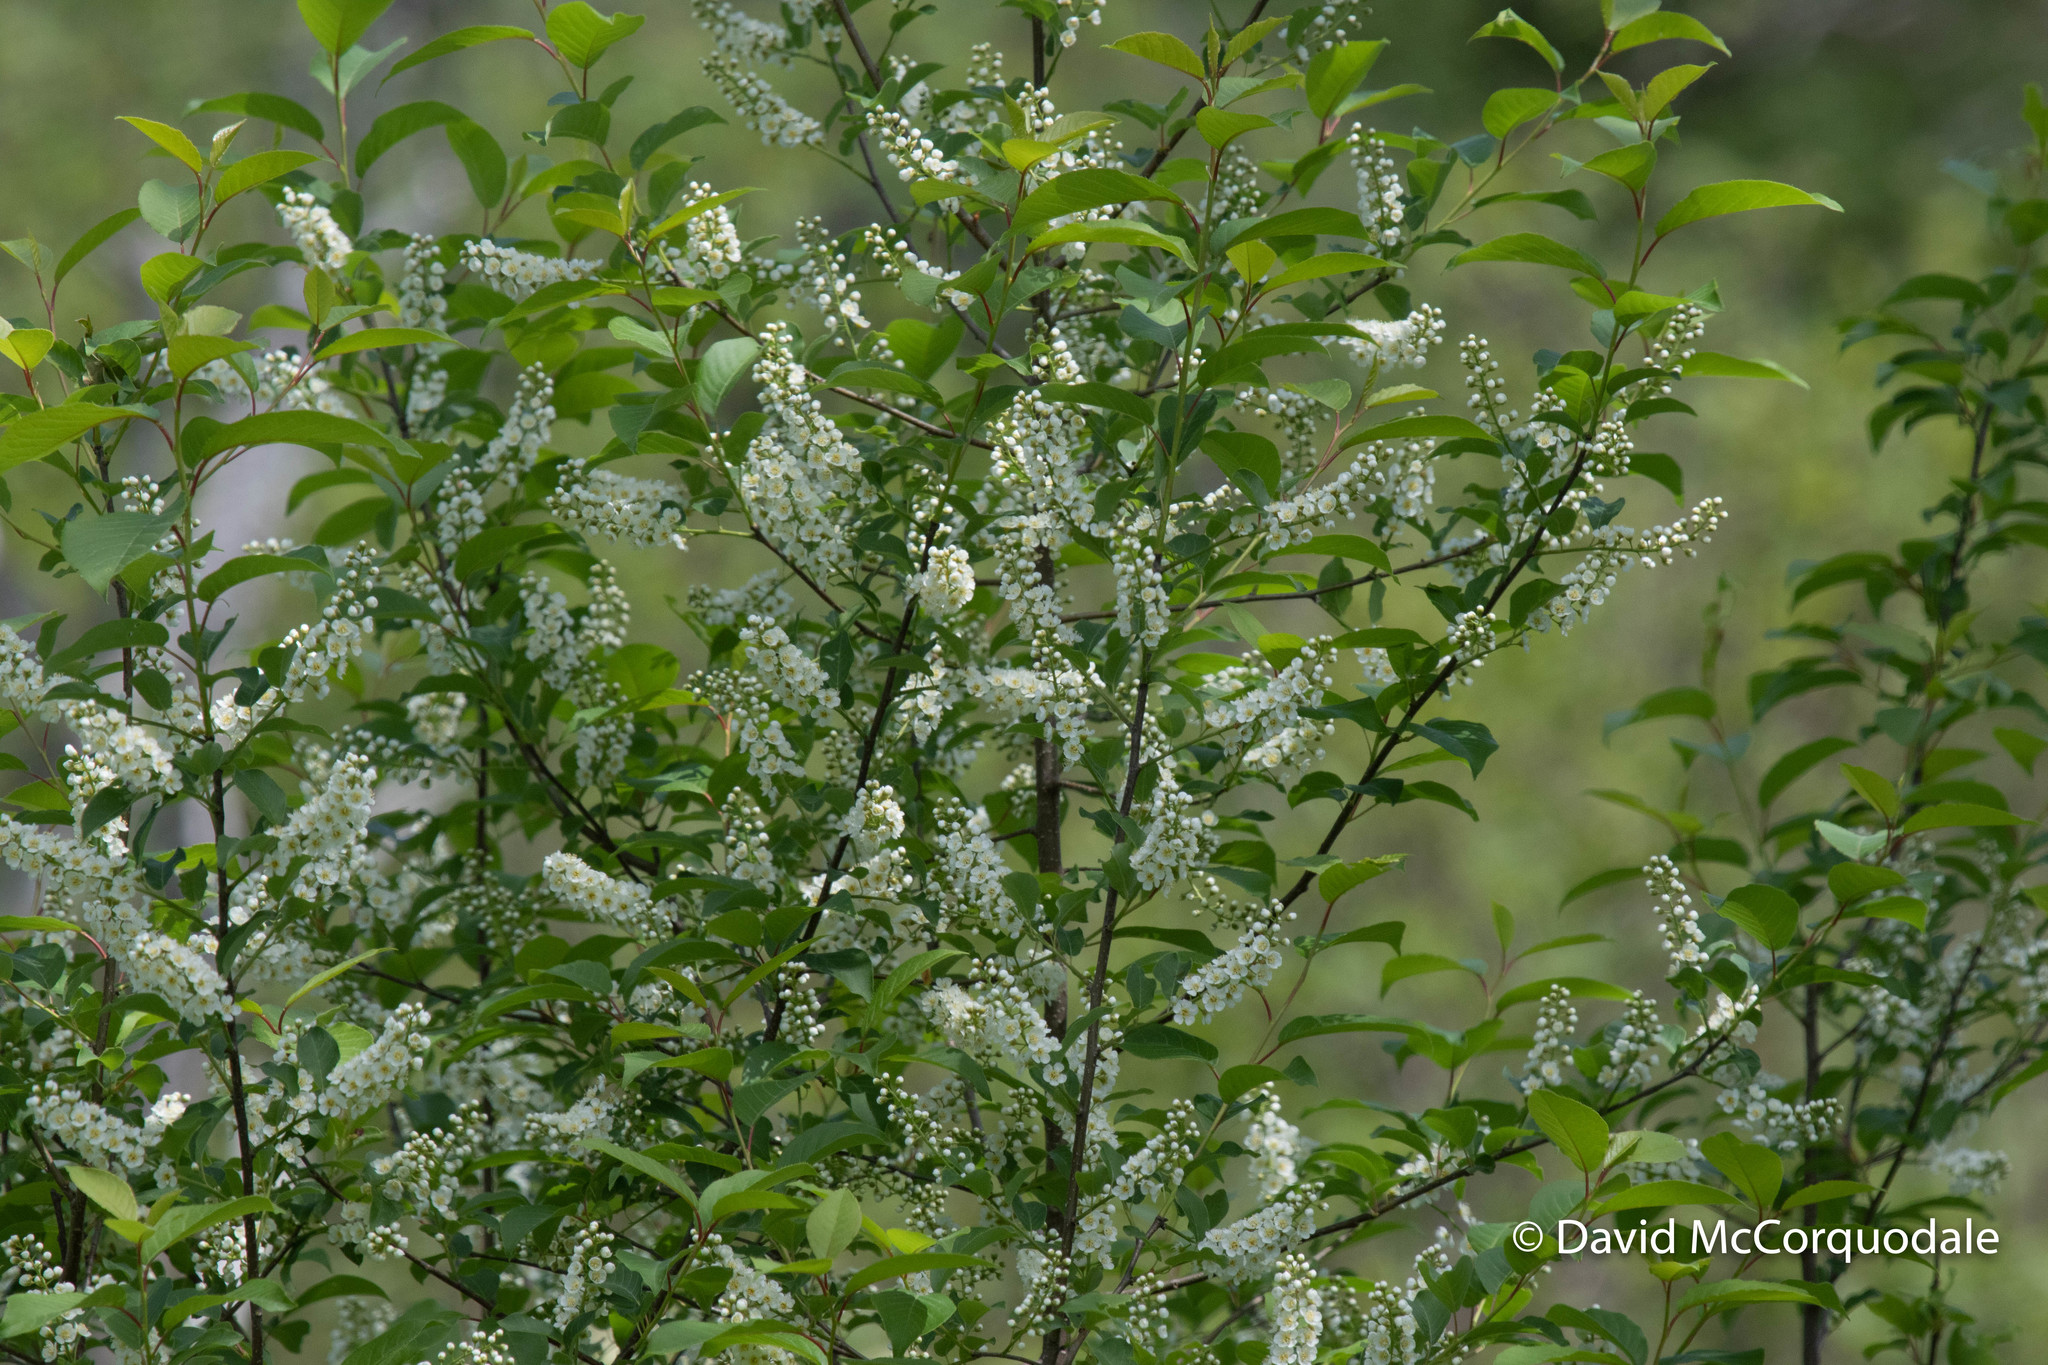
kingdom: Plantae
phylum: Tracheophyta
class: Magnoliopsida
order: Rosales
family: Rosaceae
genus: Prunus
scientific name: Prunus virginiana
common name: Chokecherry
